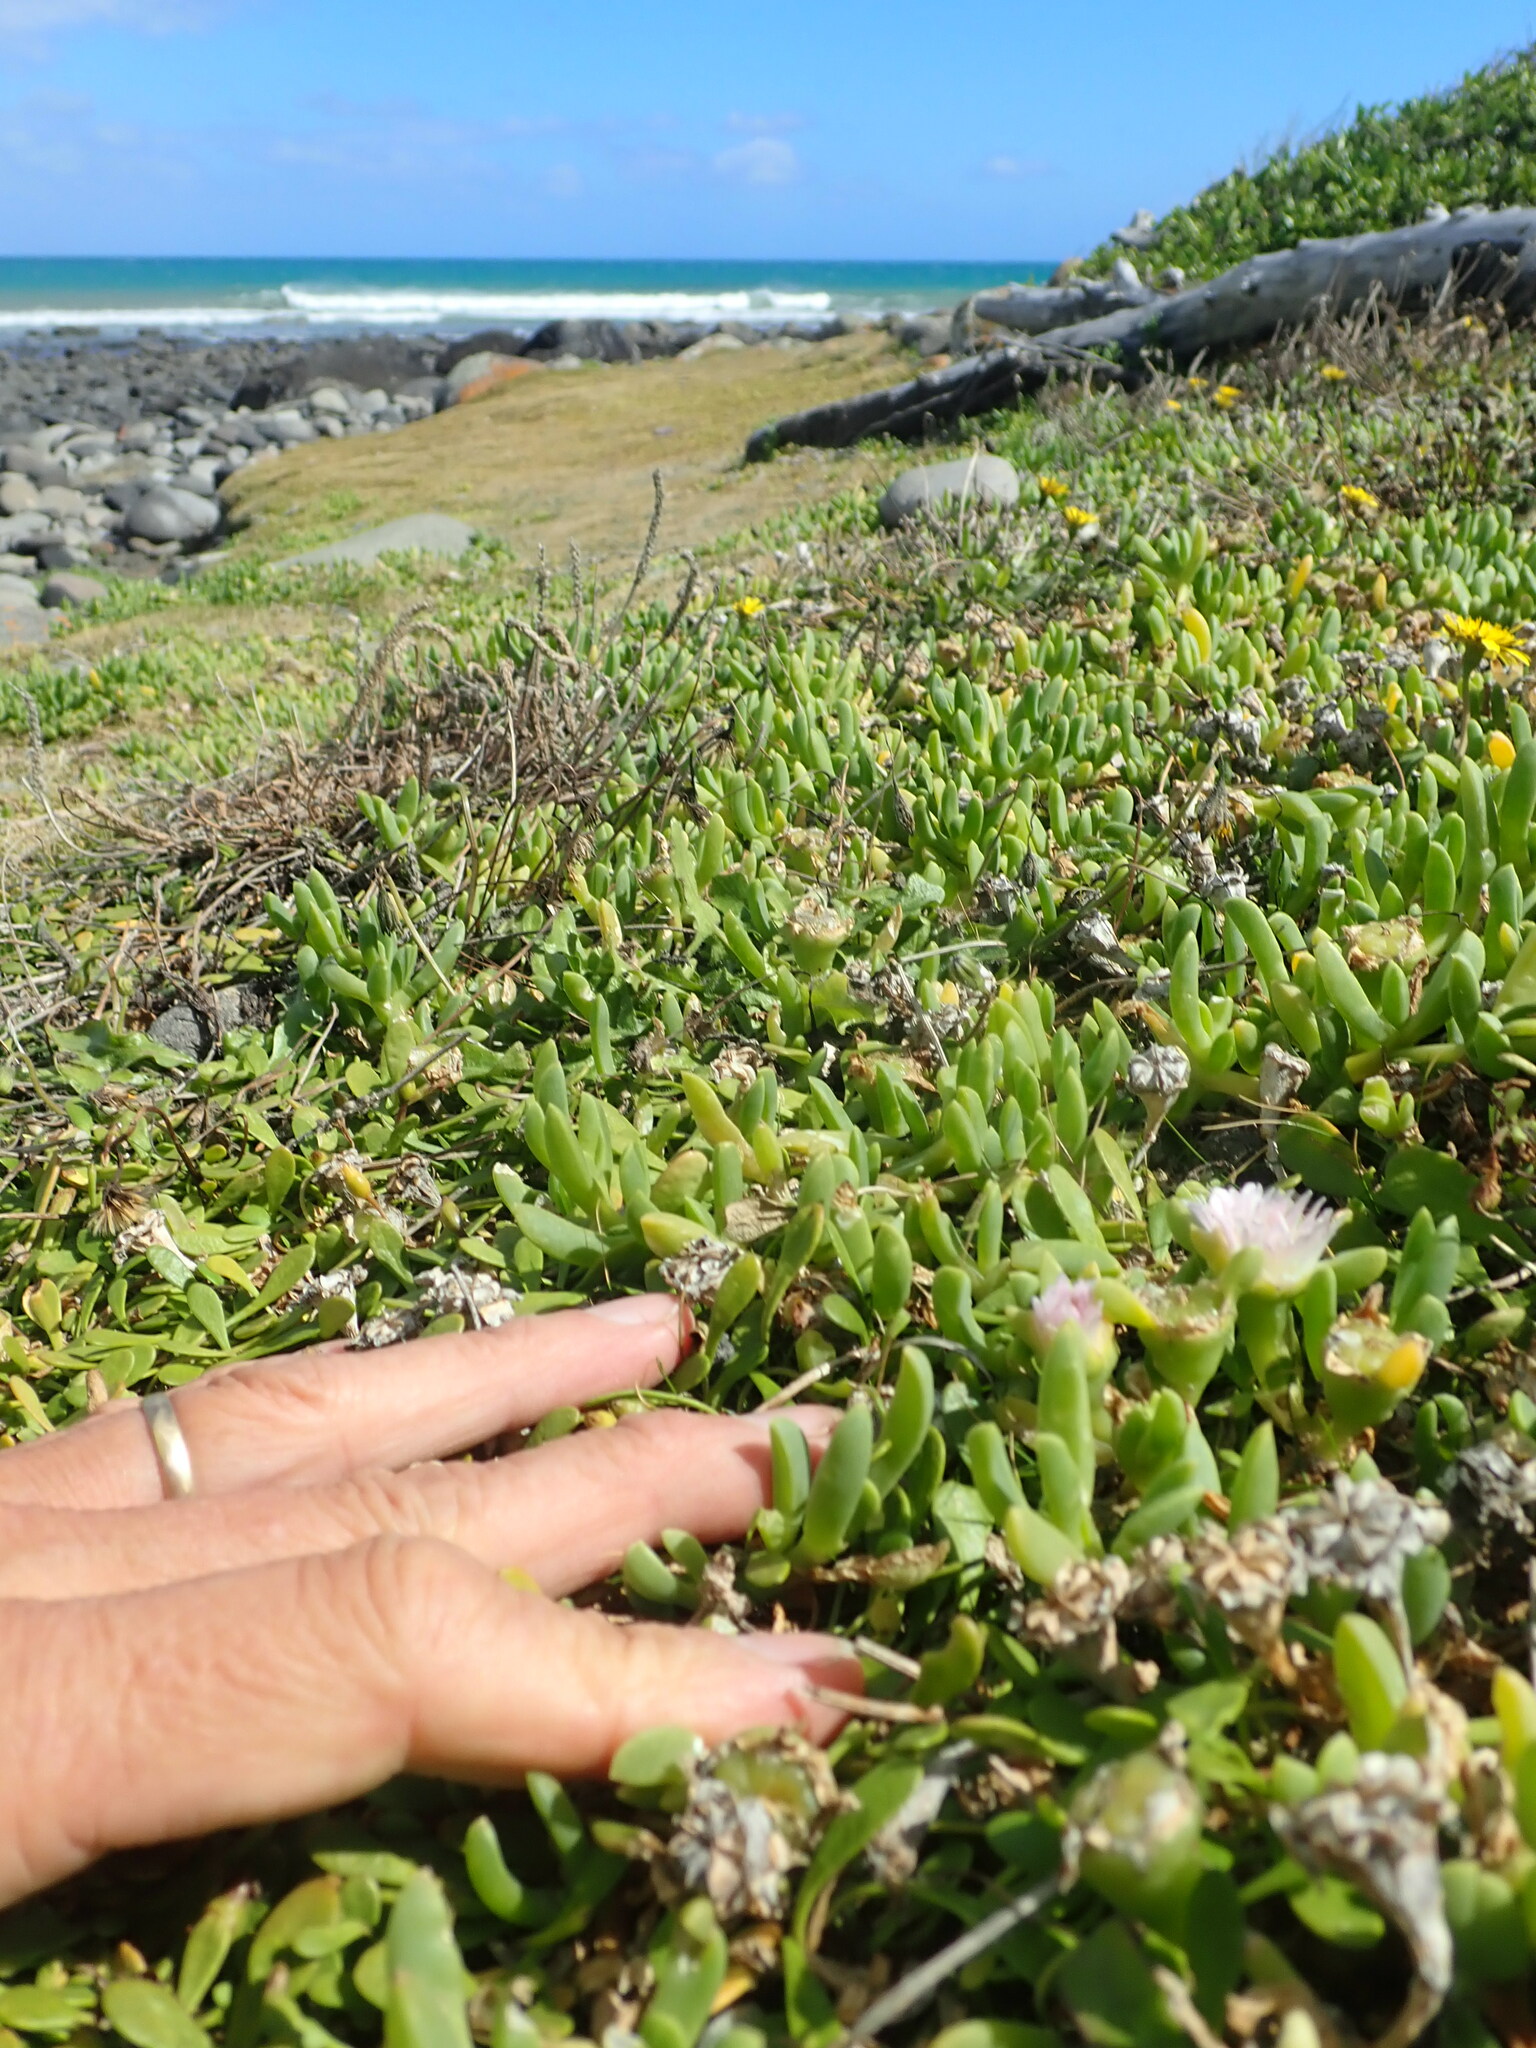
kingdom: Plantae
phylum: Tracheophyta
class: Magnoliopsida
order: Caryophyllales
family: Aizoaceae
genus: Disphyma
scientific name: Disphyma australe
